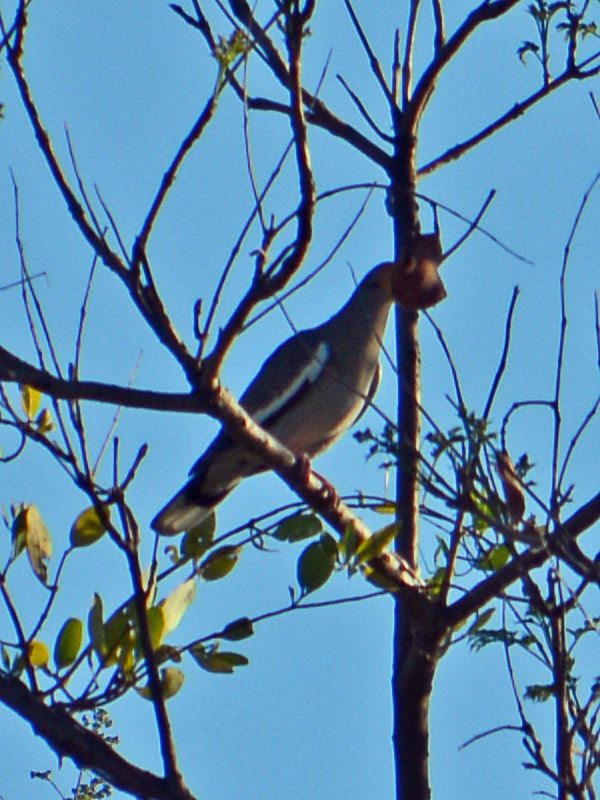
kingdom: Animalia
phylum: Chordata
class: Aves
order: Columbiformes
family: Columbidae
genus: Zenaida
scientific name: Zenaida asiatica
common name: White-winged dove
